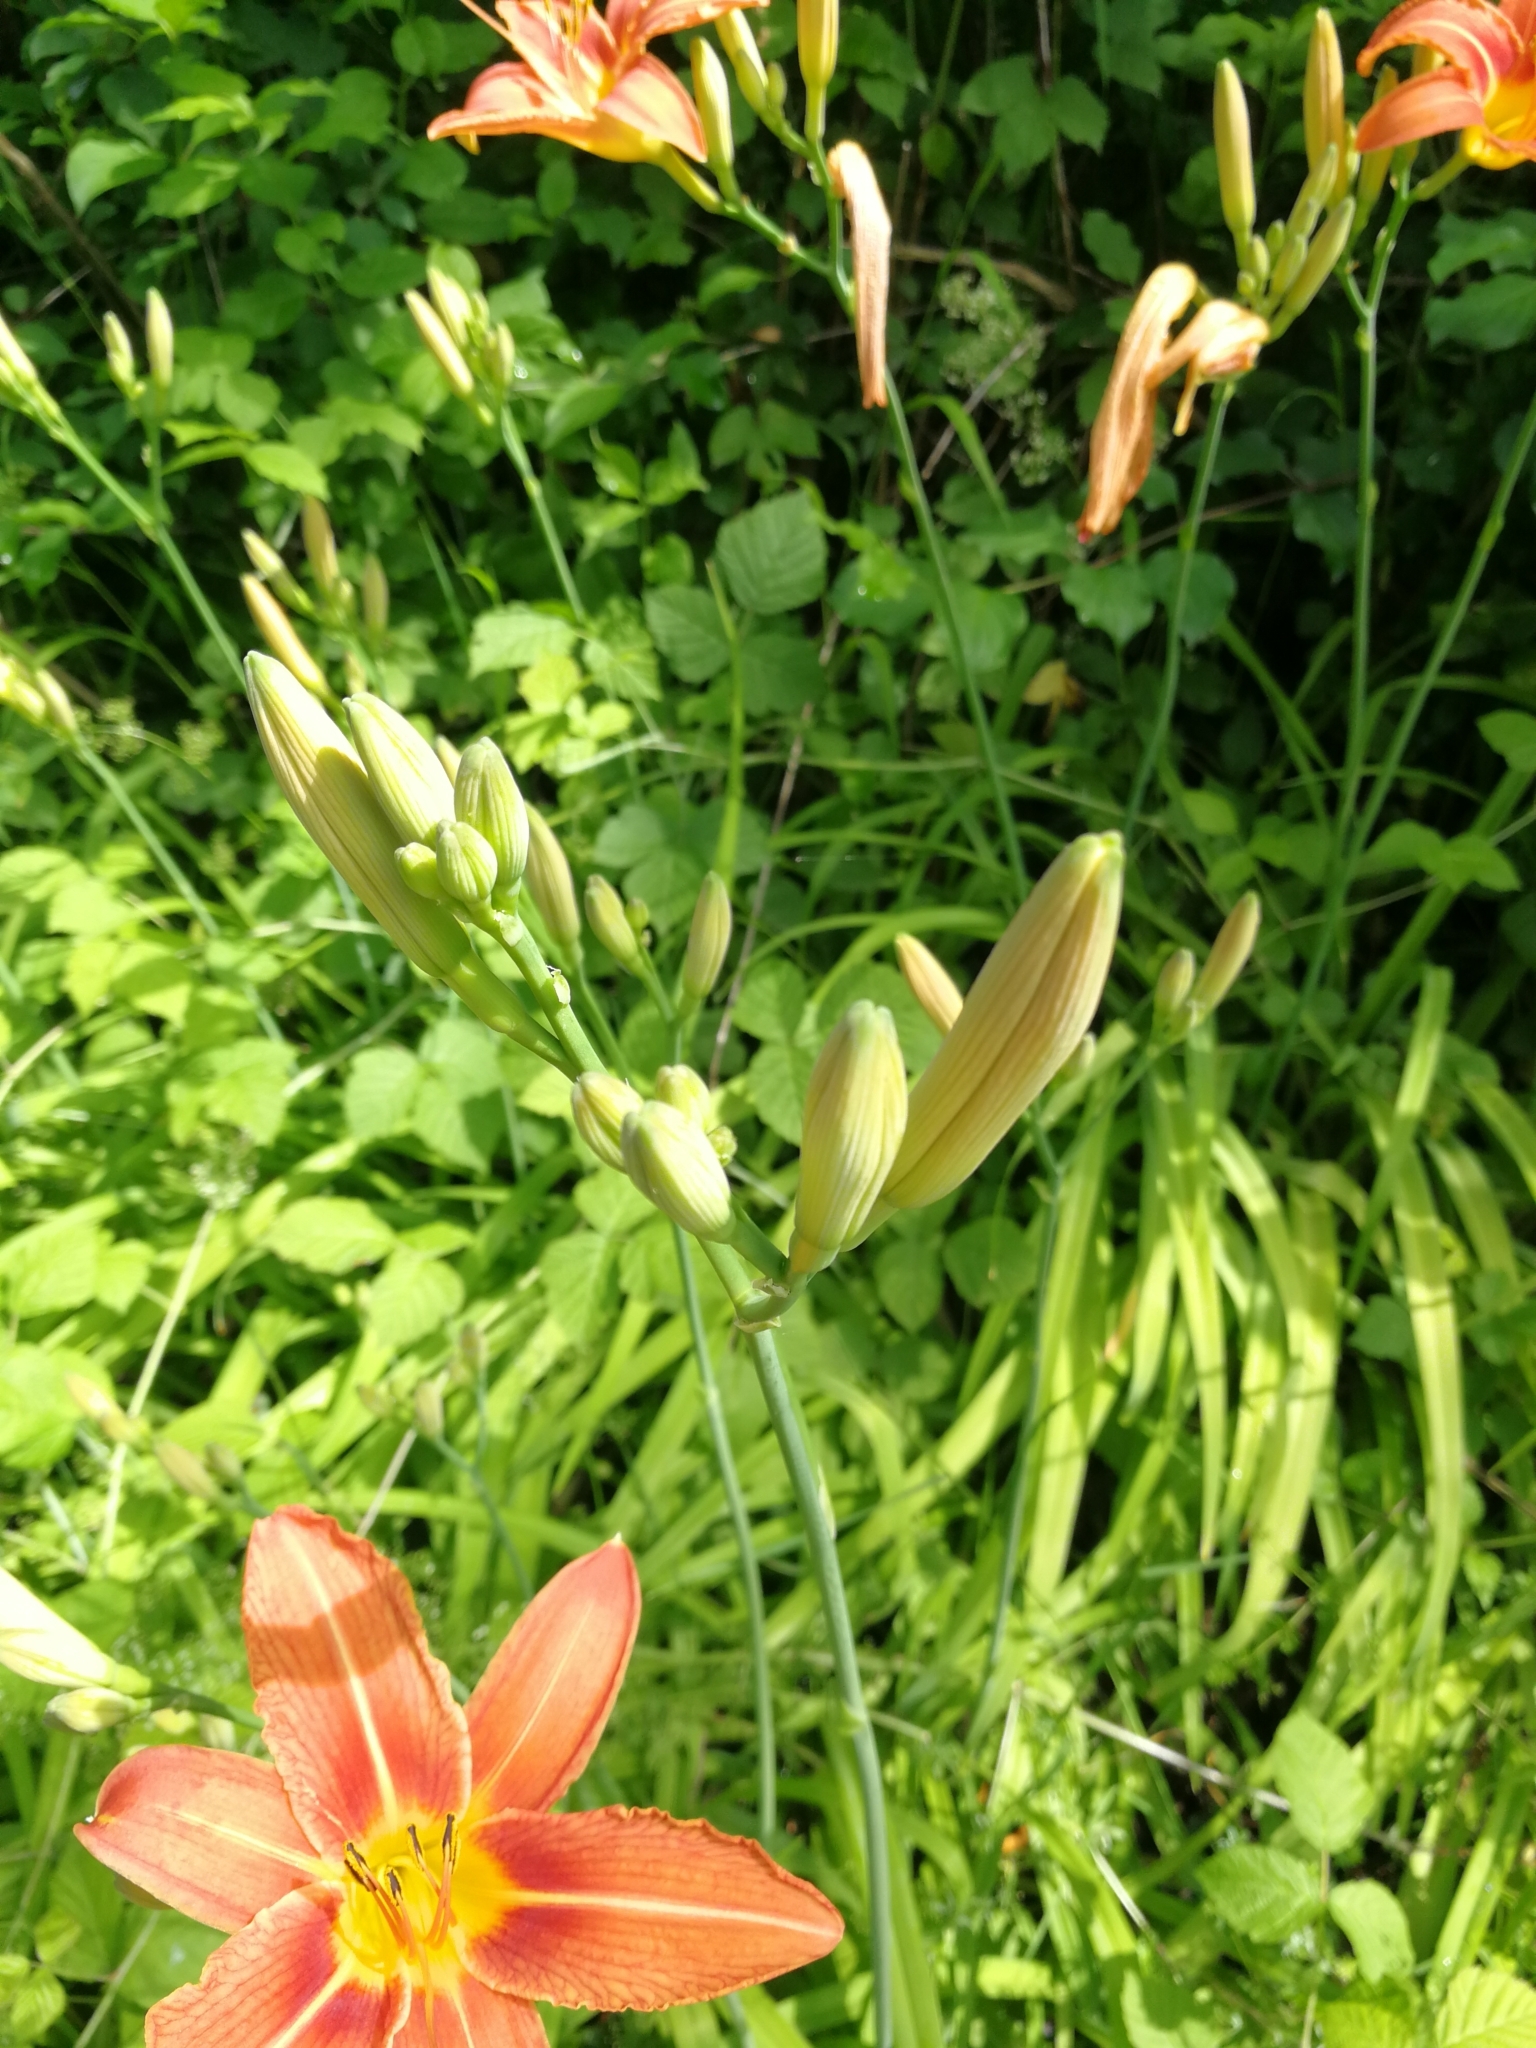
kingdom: Plantae
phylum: Tracheophyta
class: Liliopsida
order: Asparagales
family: Asphodelaceae
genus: Hemerocallis
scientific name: Hemerocallis fulva
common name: Orange day-lily
